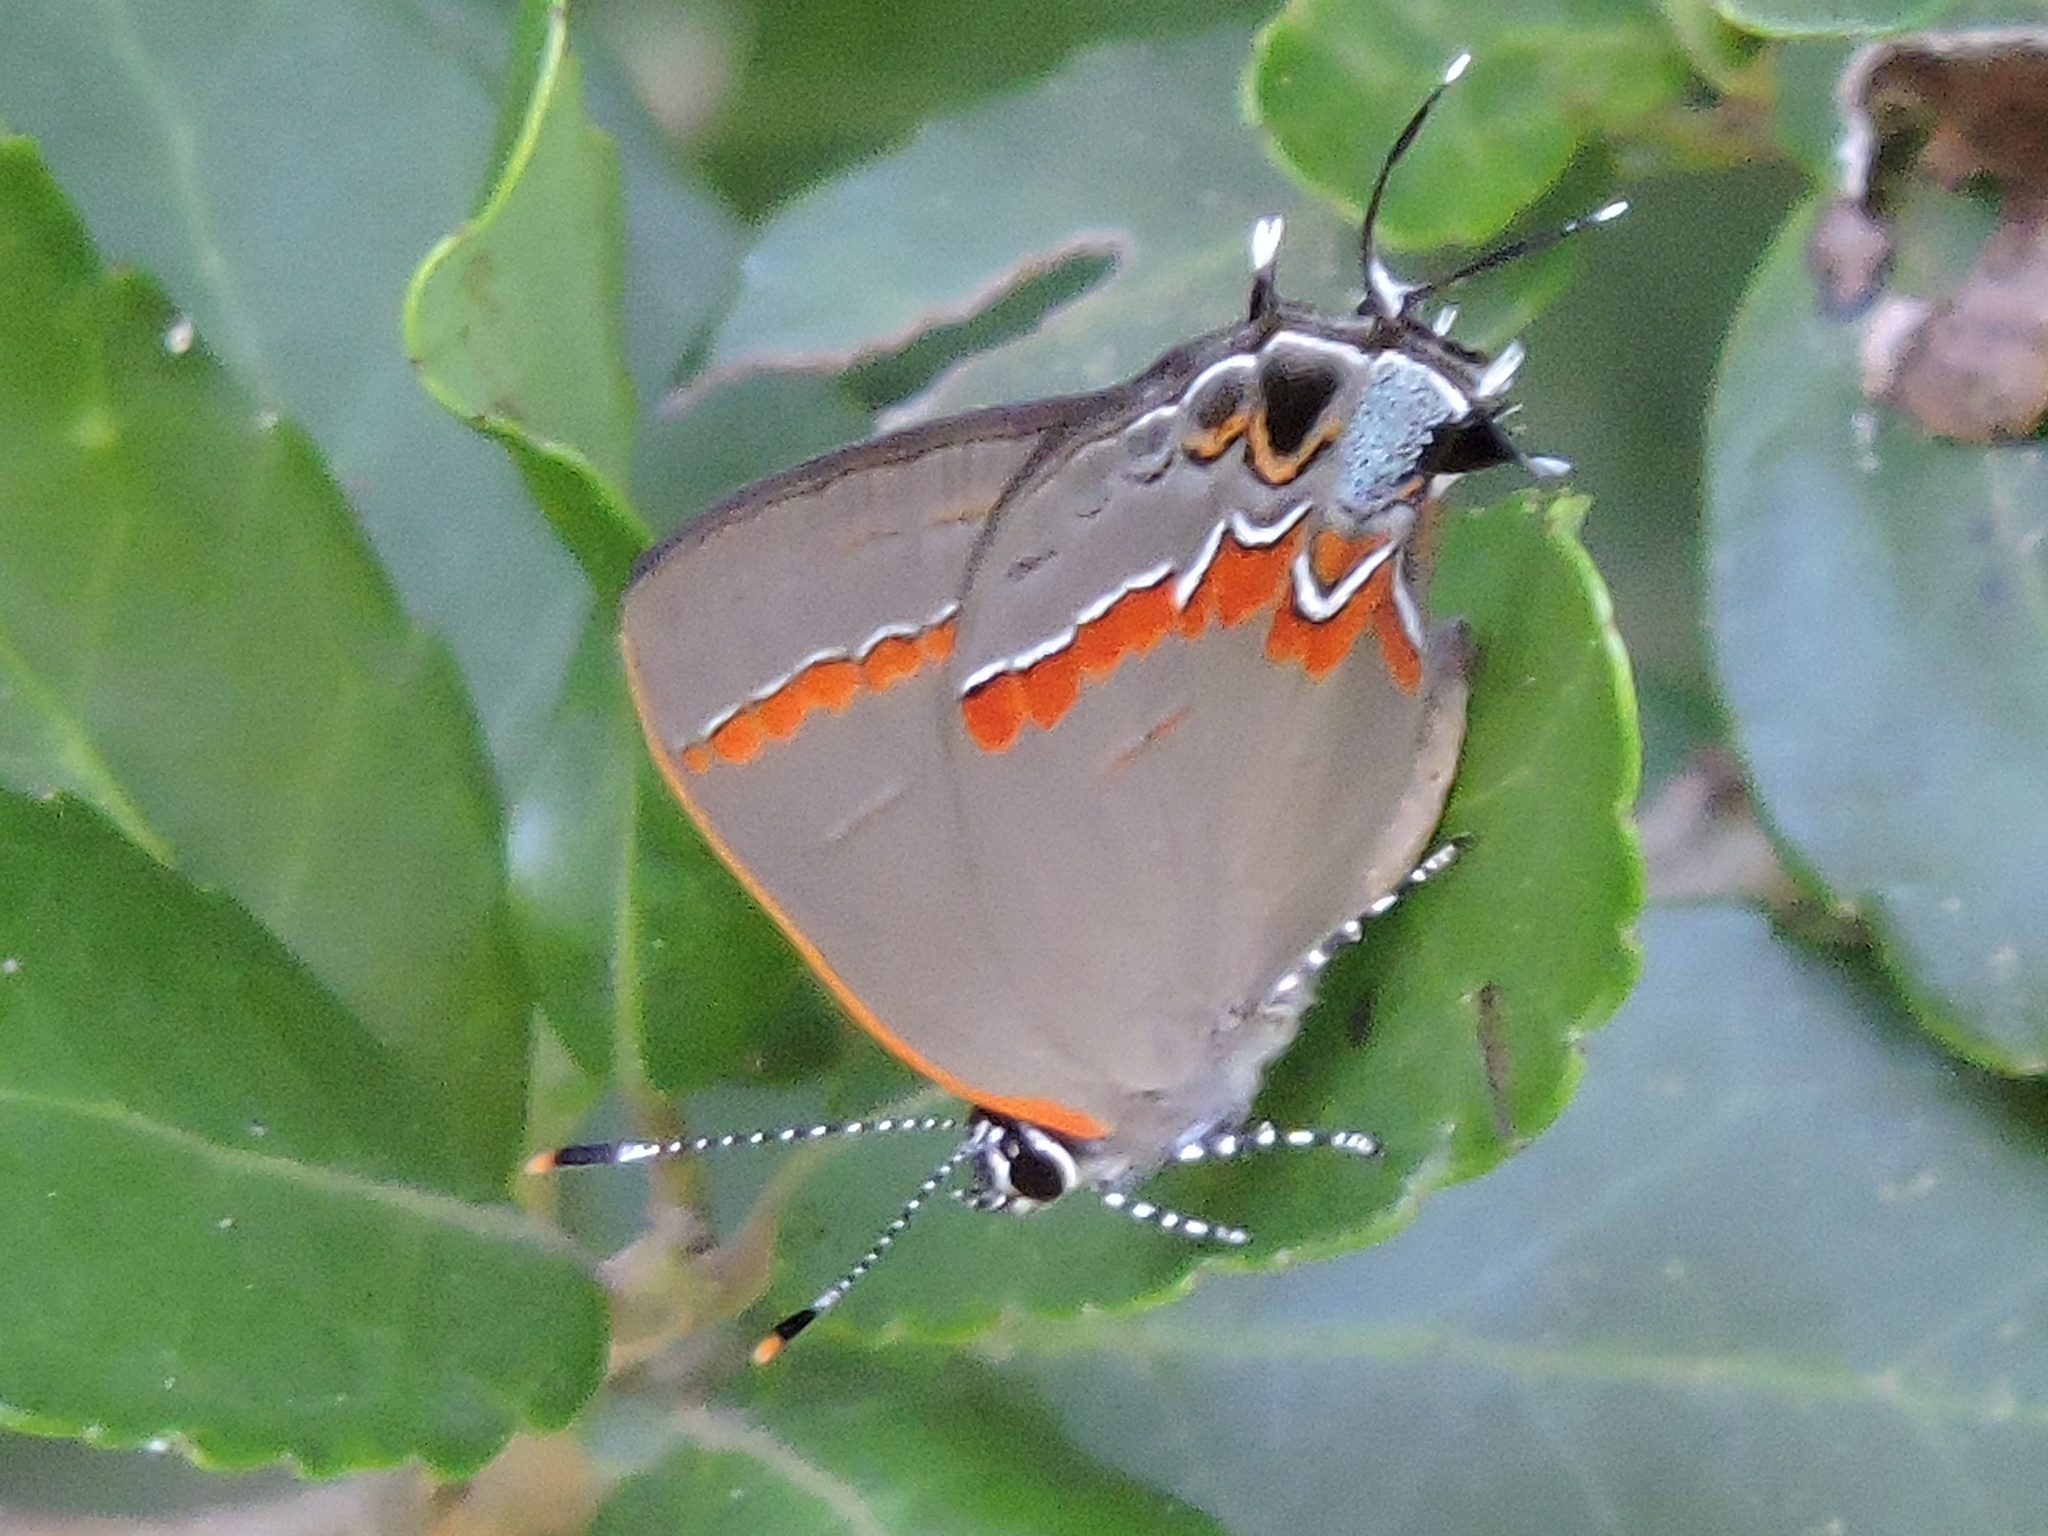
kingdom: Animalia
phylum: Arthropoda
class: Insecta
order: Lepidoptera
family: Lycaenidae
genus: Calycopis
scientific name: Calycopis cecrops
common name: Red-banded hairstreak
